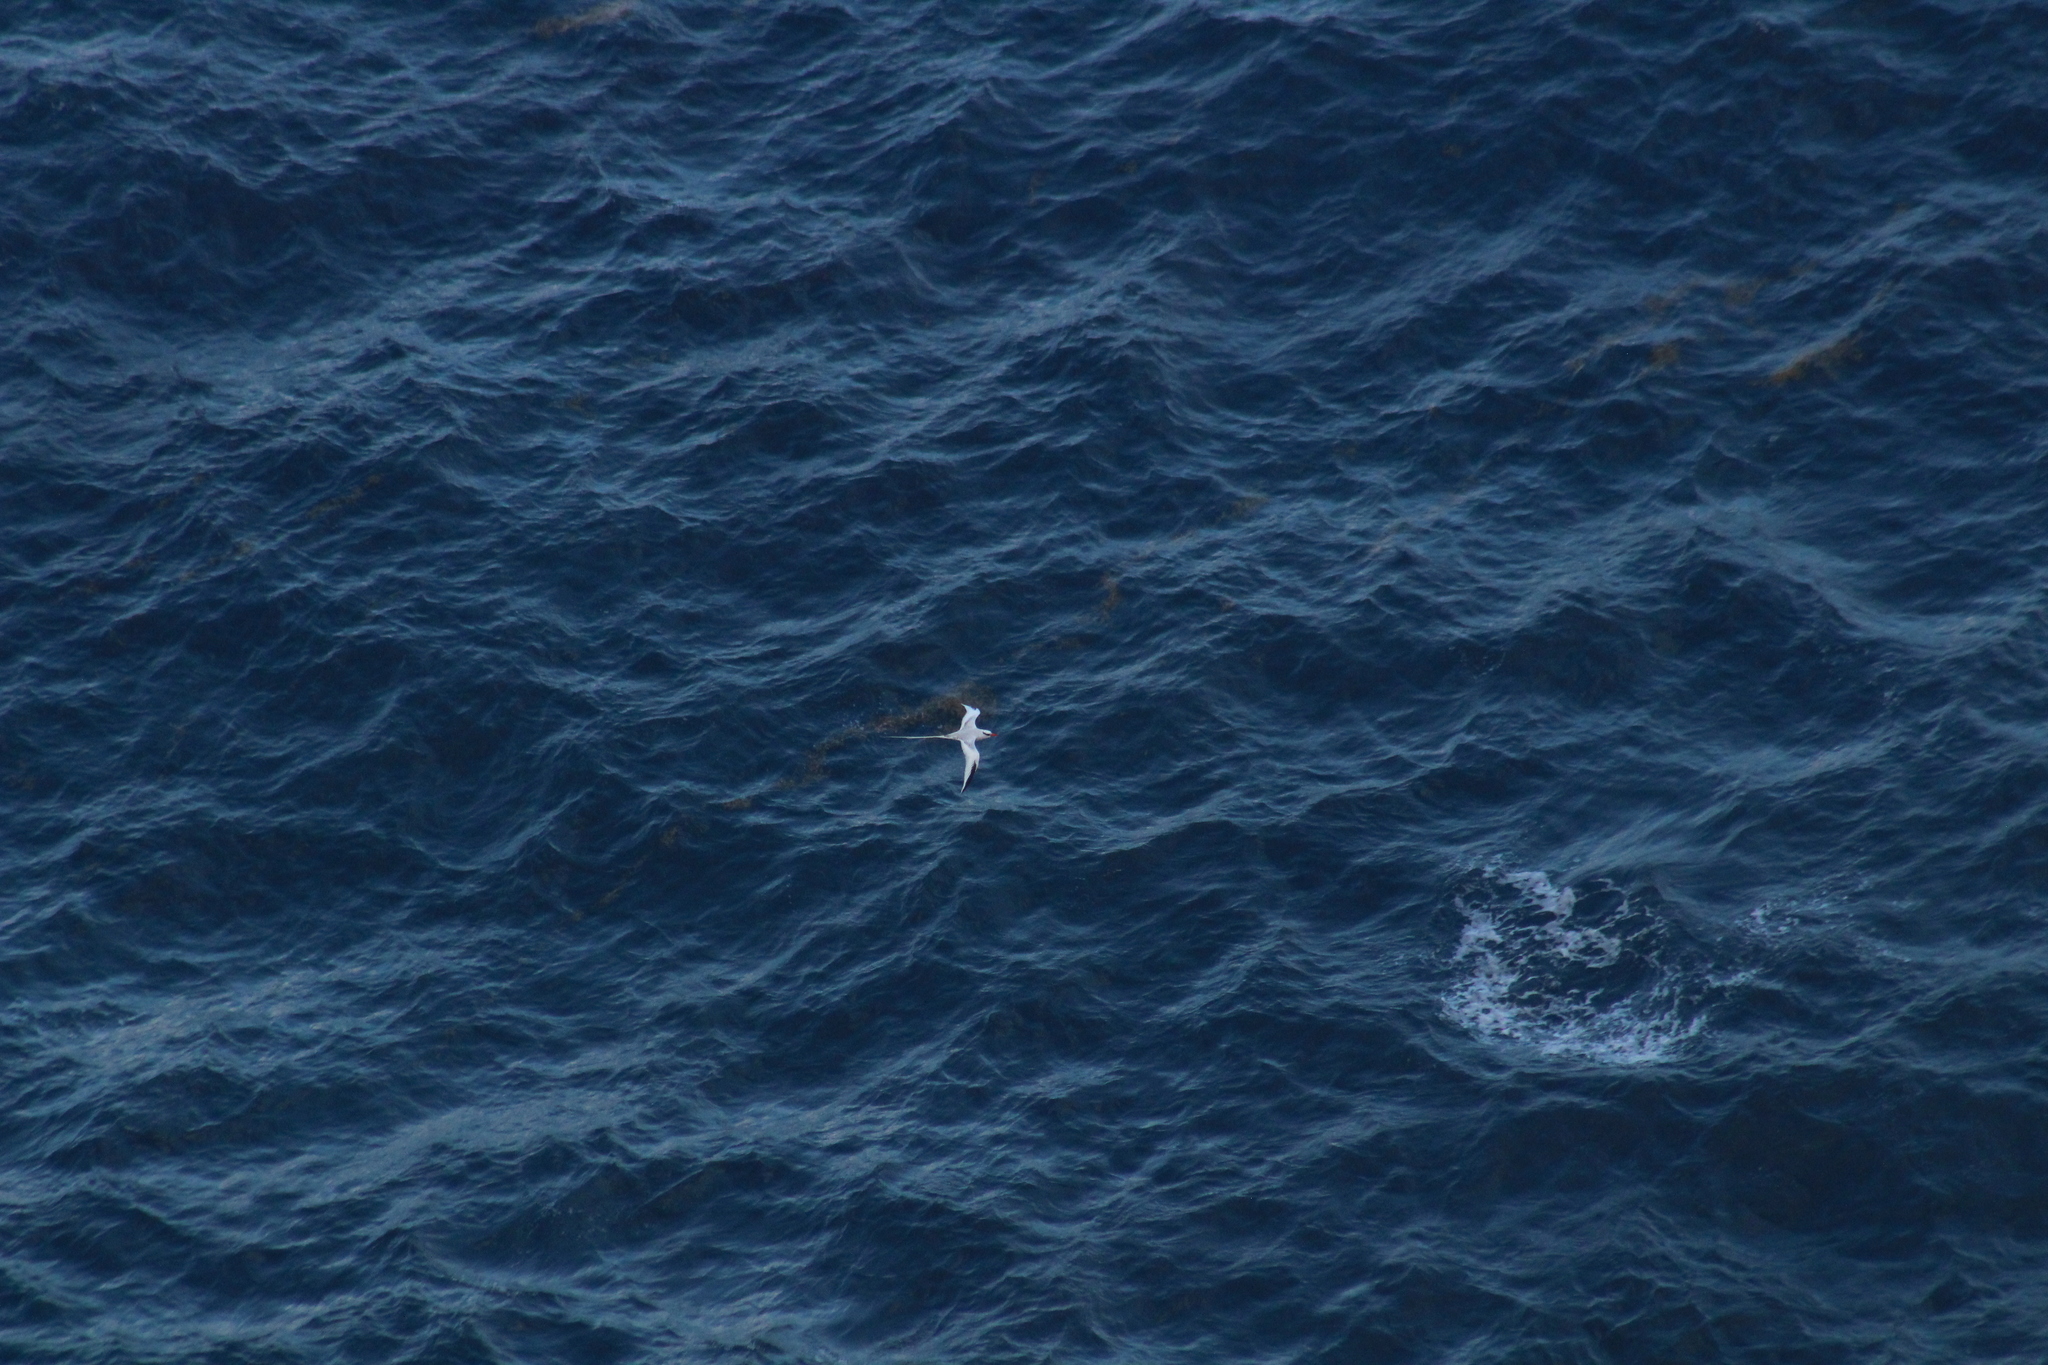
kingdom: Animalia
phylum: Chordata
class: Aves
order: Phaethontiformes
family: Phaethontidae
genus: Phaethon
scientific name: Phaethon aethereus
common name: Red-billed tropicbird
